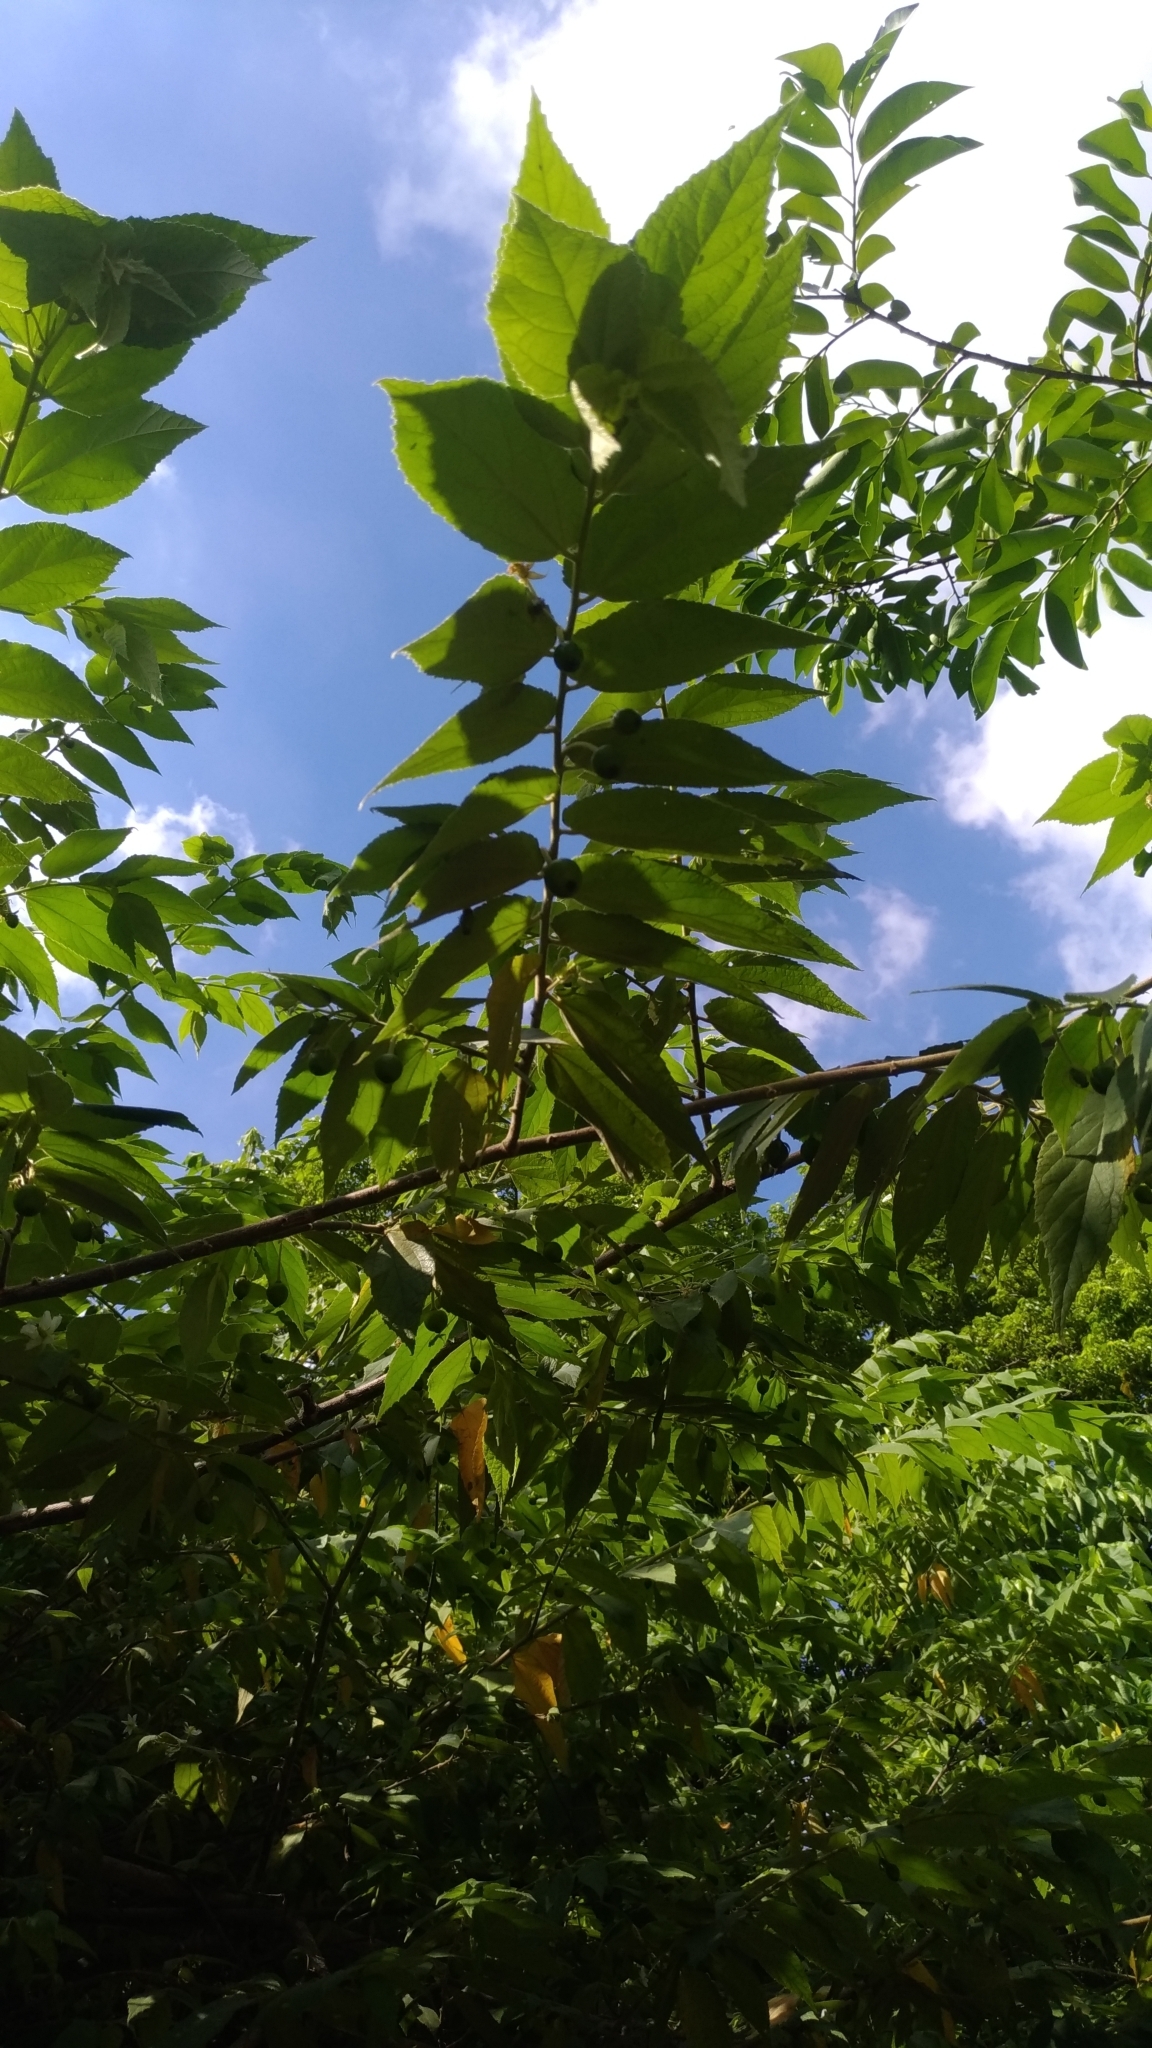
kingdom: Plantae
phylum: Tracheophyta
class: Magnoliopsida
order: Malvales
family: Muntingiaceae
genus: Muntingia
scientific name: Muntingia calabura
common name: Strawberrytree
